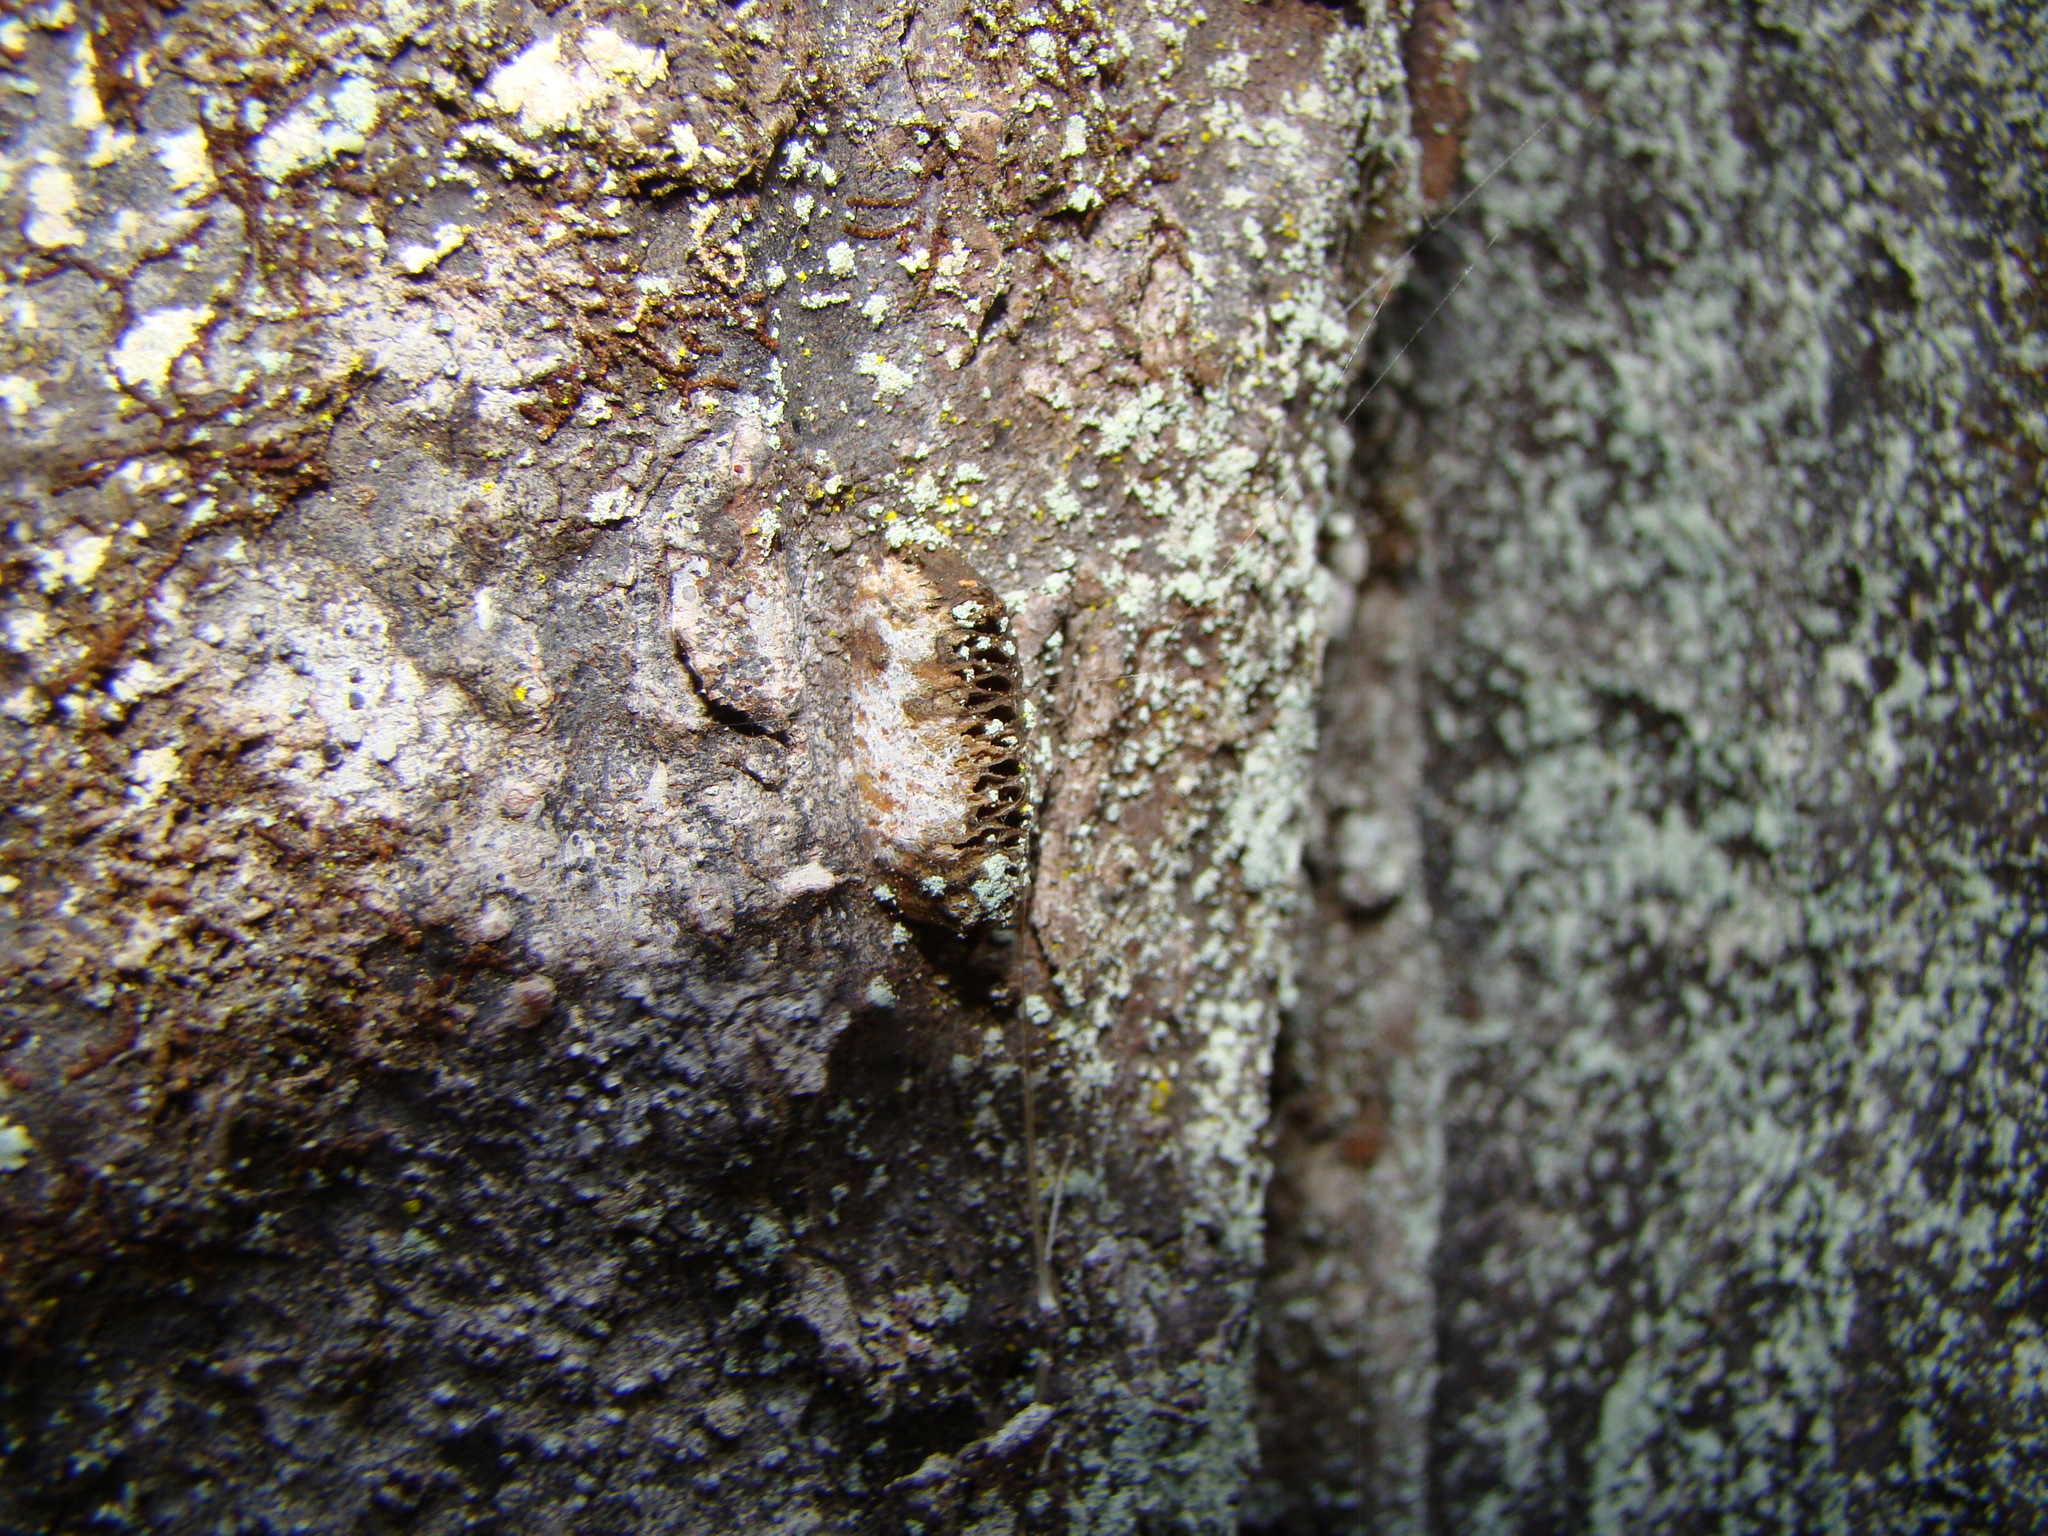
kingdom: Animalia
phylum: Arthropoda
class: Insecta
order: Mantodea
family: Mantidae
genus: Orthodera
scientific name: Orthodera novaezealandiae
